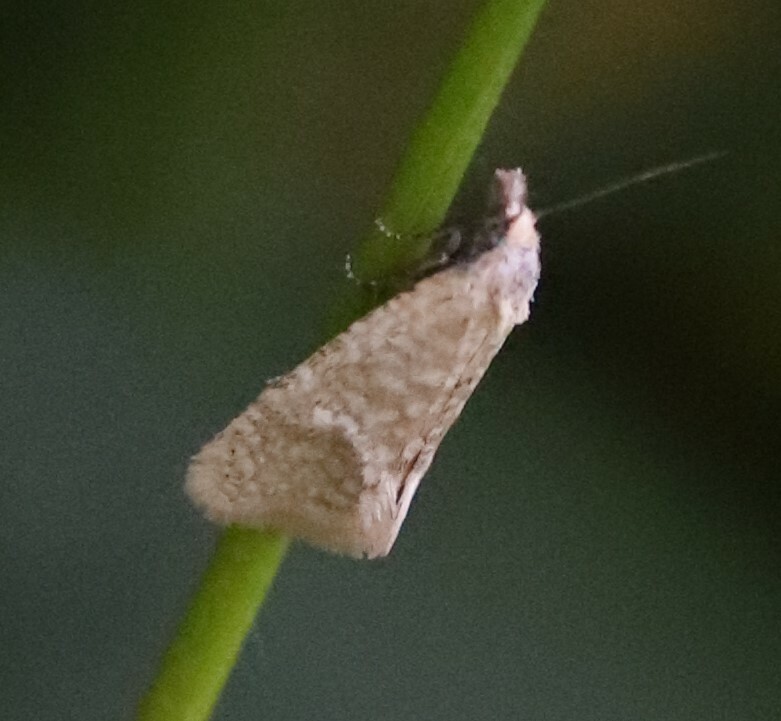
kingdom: Animalia
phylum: Arthropoda
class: Insecta
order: Lepidoptera
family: Tortricidae
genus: Cochylimorpha
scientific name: Cochylimorpha perfusana
